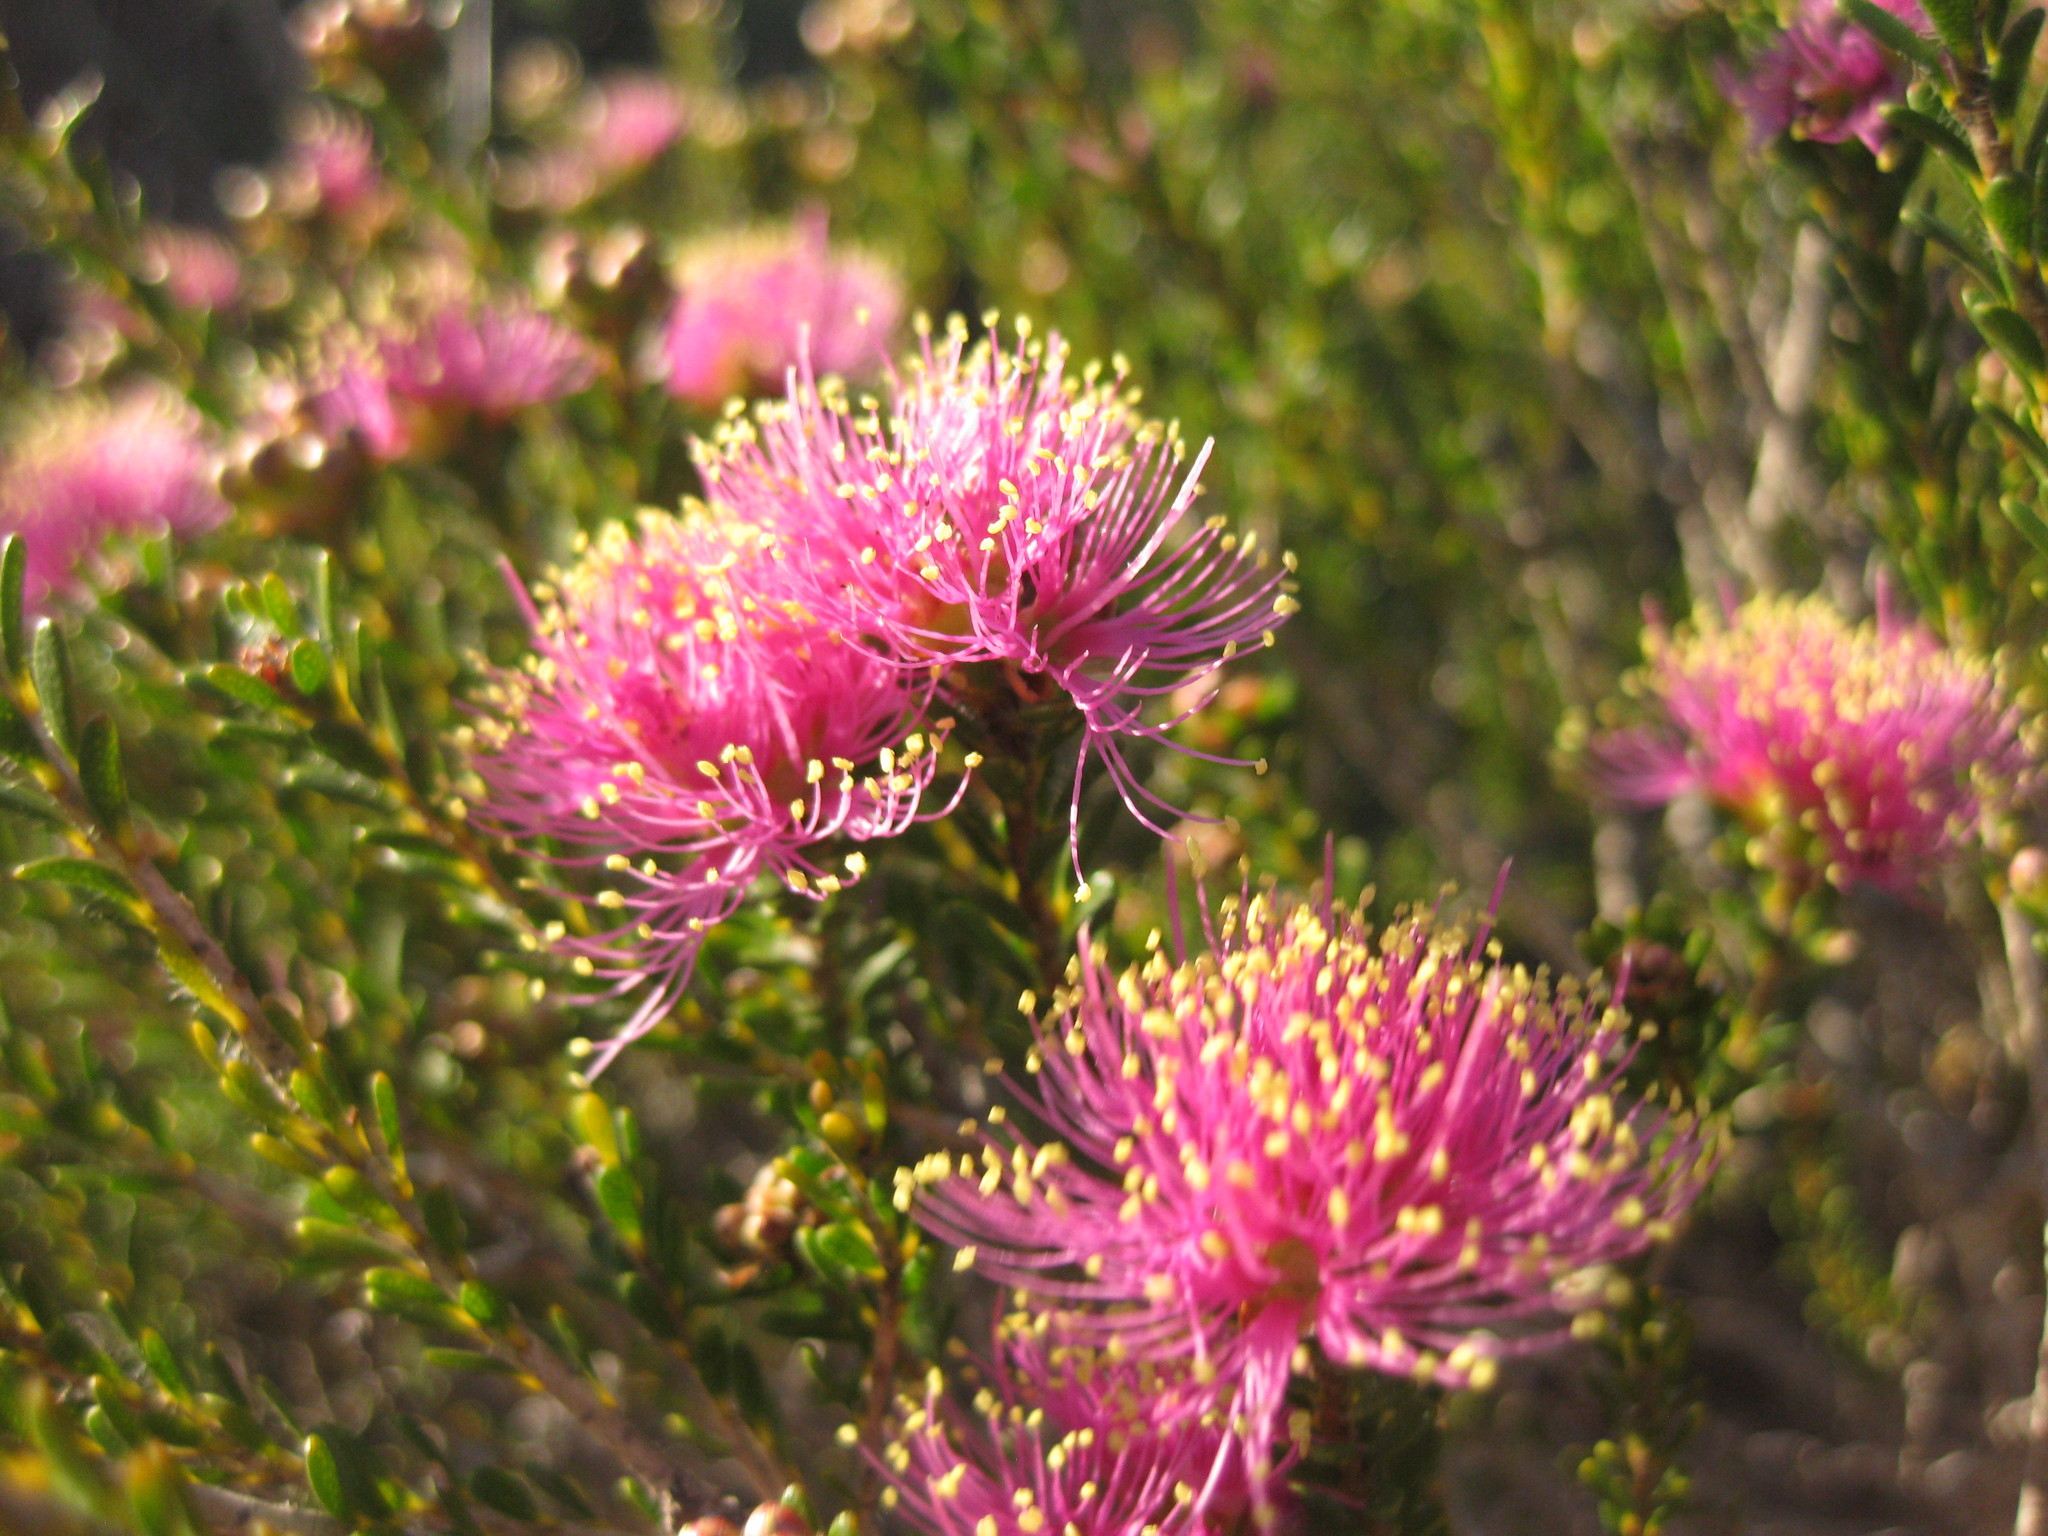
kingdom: Plantae
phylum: Tracheophyta
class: Magnoliopsida
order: Myrtales
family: Myrtaceae
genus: Melaleuca
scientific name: Melaleuca psammophila
